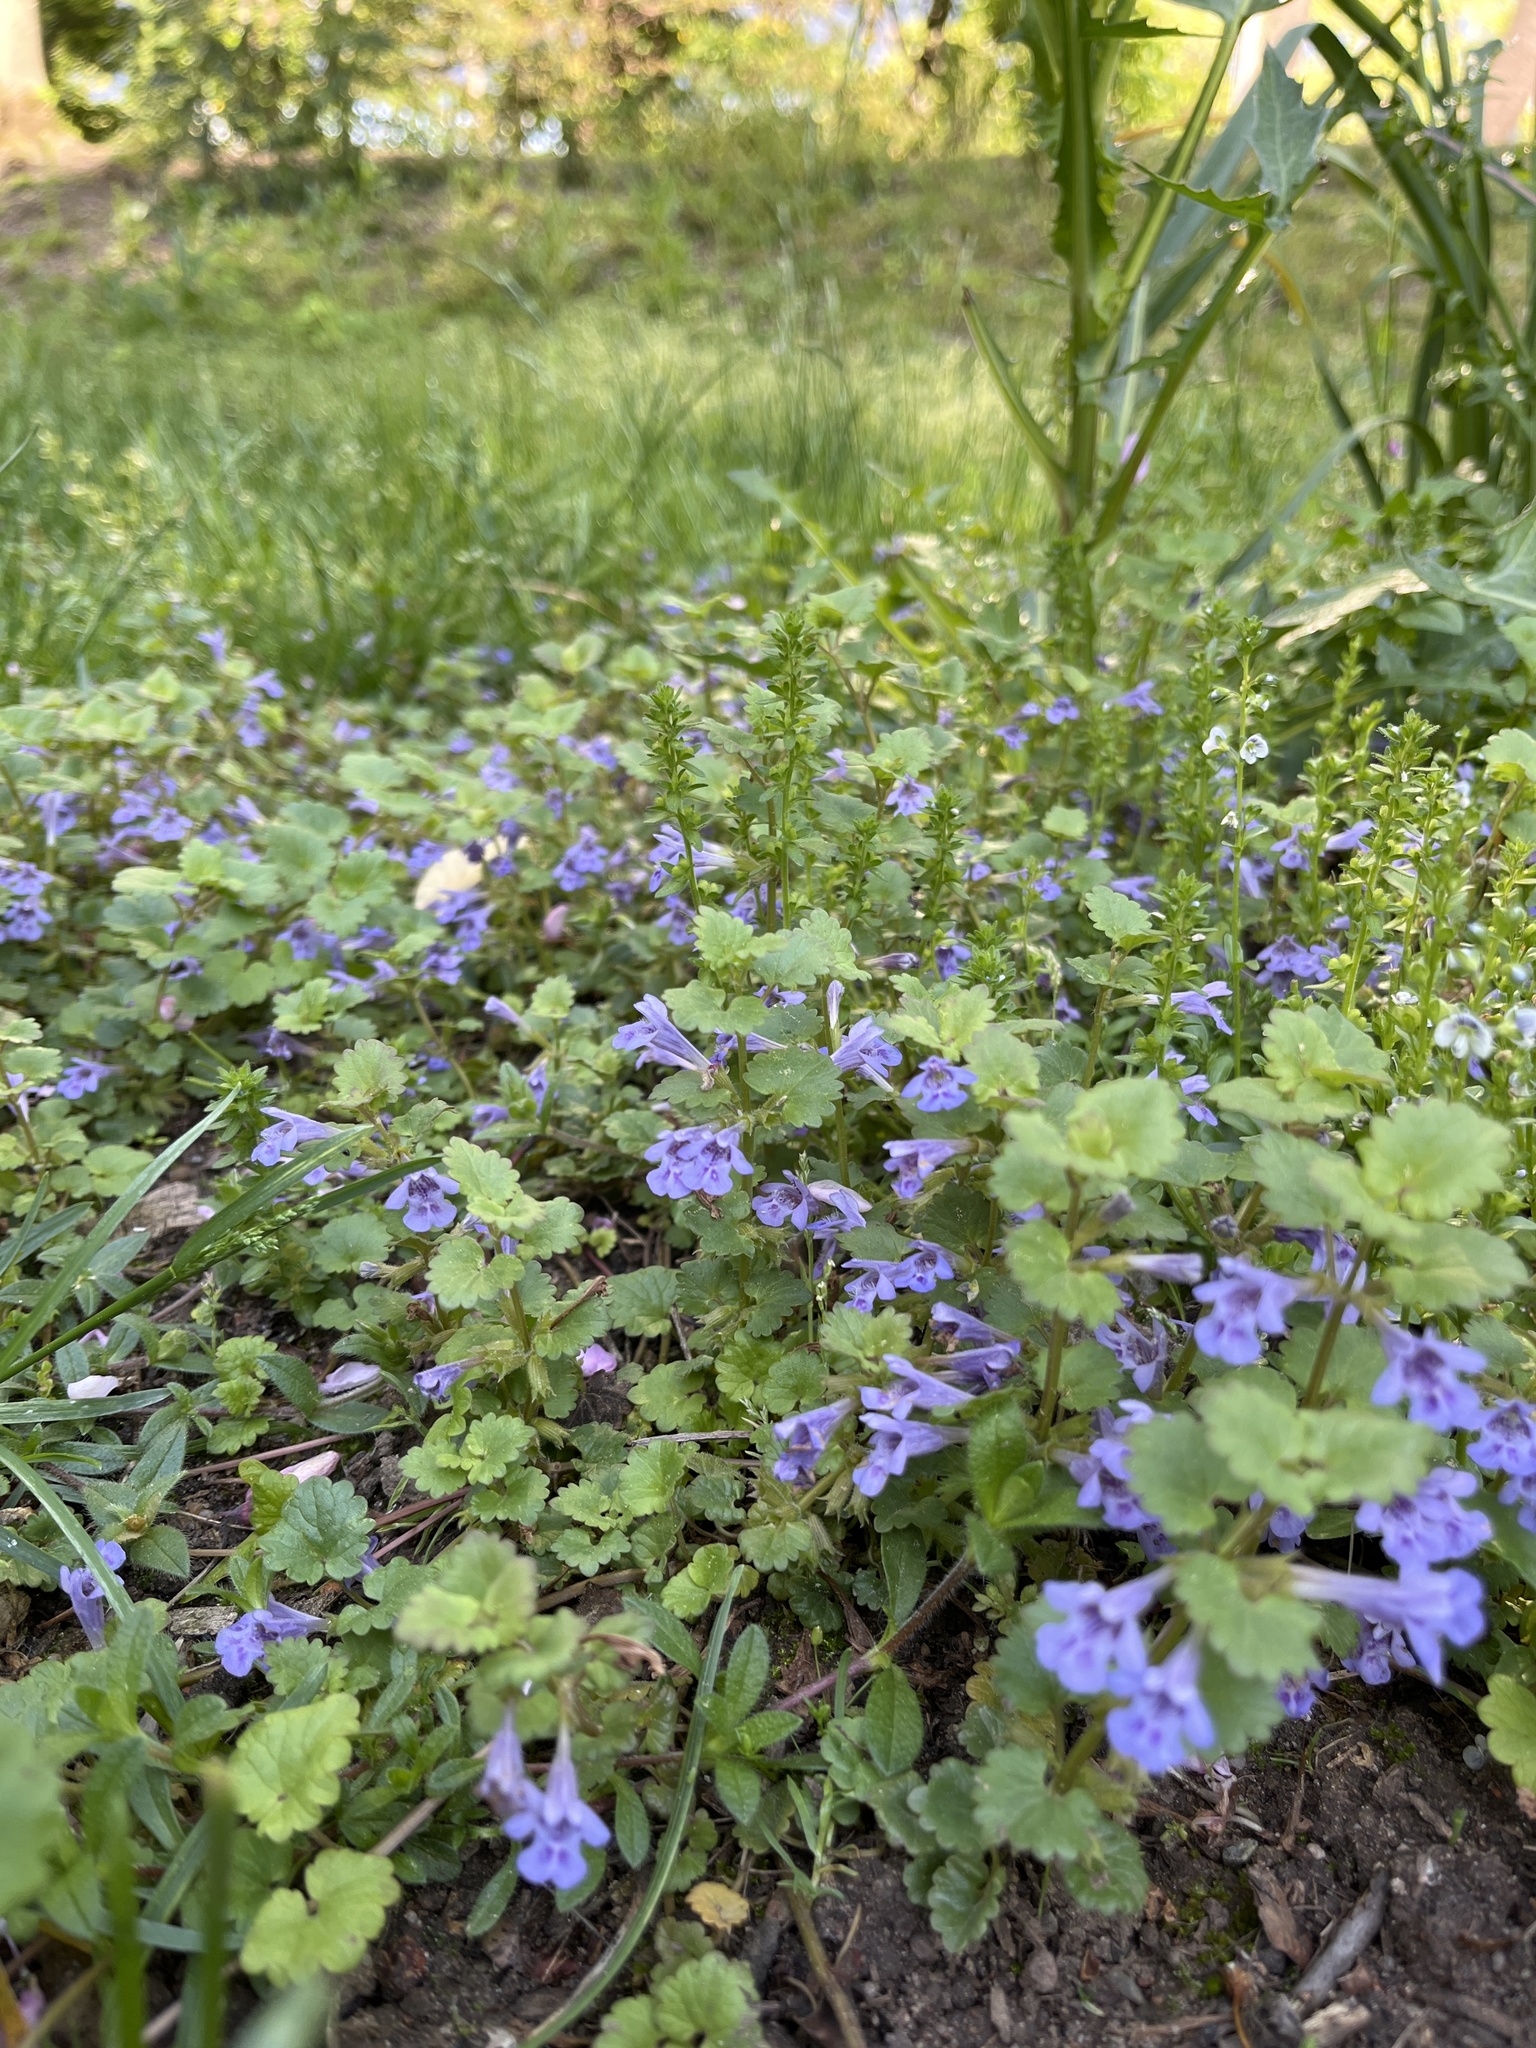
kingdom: Plantae
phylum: Tracheophyta
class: Magnoliopsida
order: Lamiales
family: Lamiaceae
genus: Glechoma
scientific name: Glechoma hederacea
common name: Ground ivy
